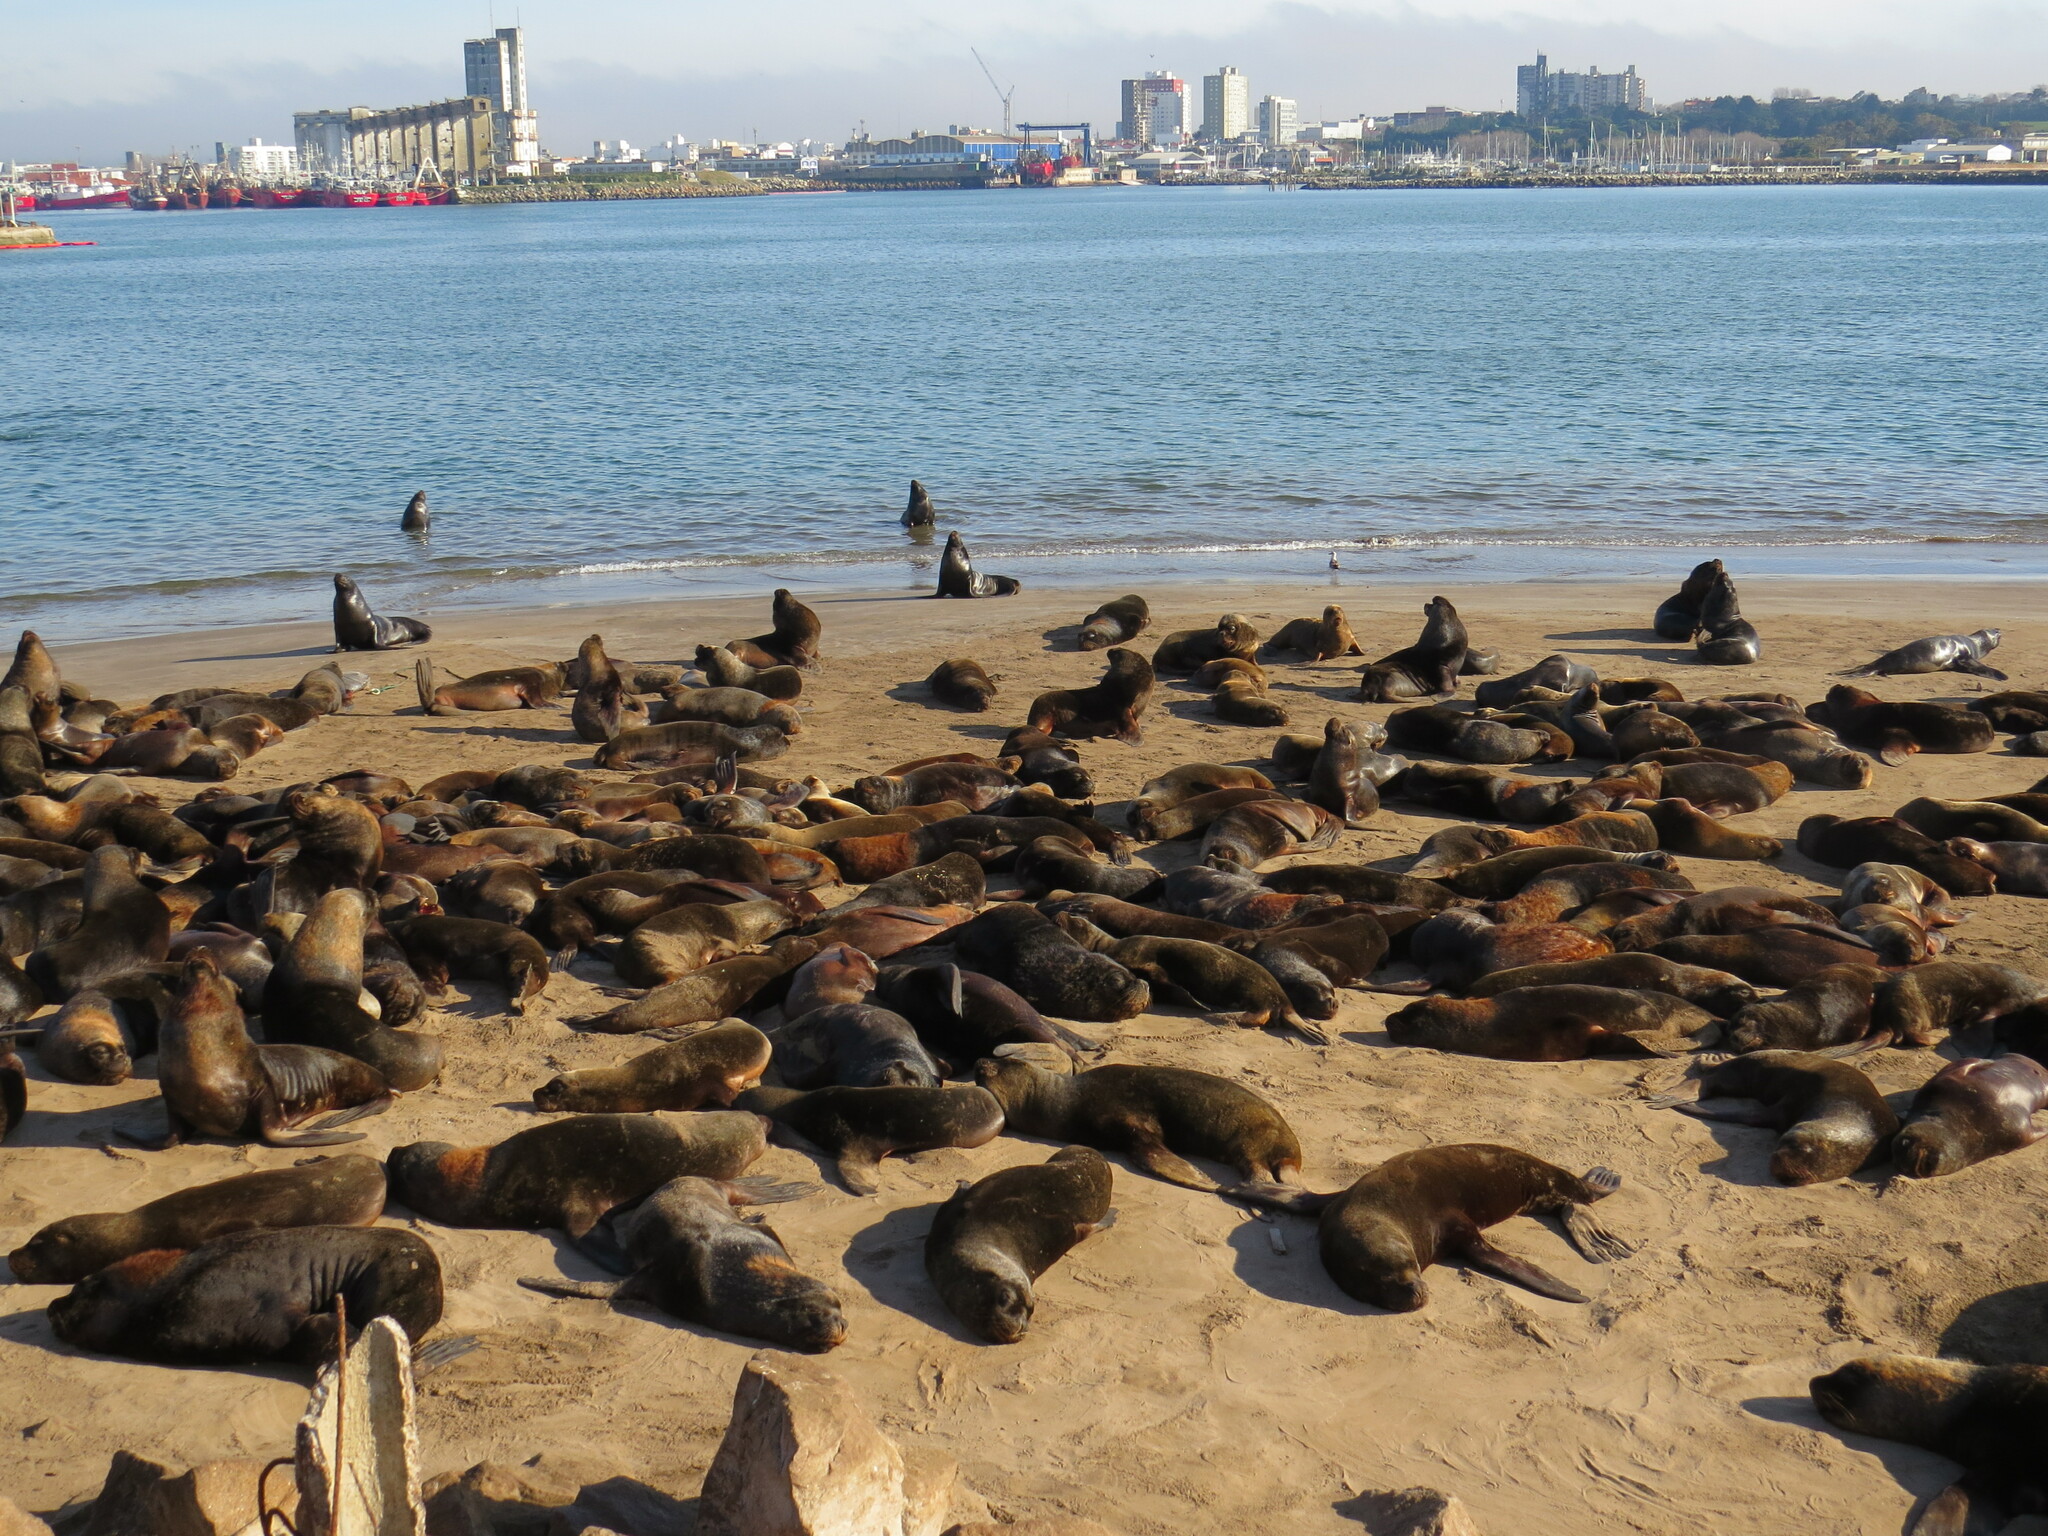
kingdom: Animalia
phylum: Chordata
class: Mammalia
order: Carnivora
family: Otariidae
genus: Otaria
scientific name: Otaria byronia
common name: South american sea lion
